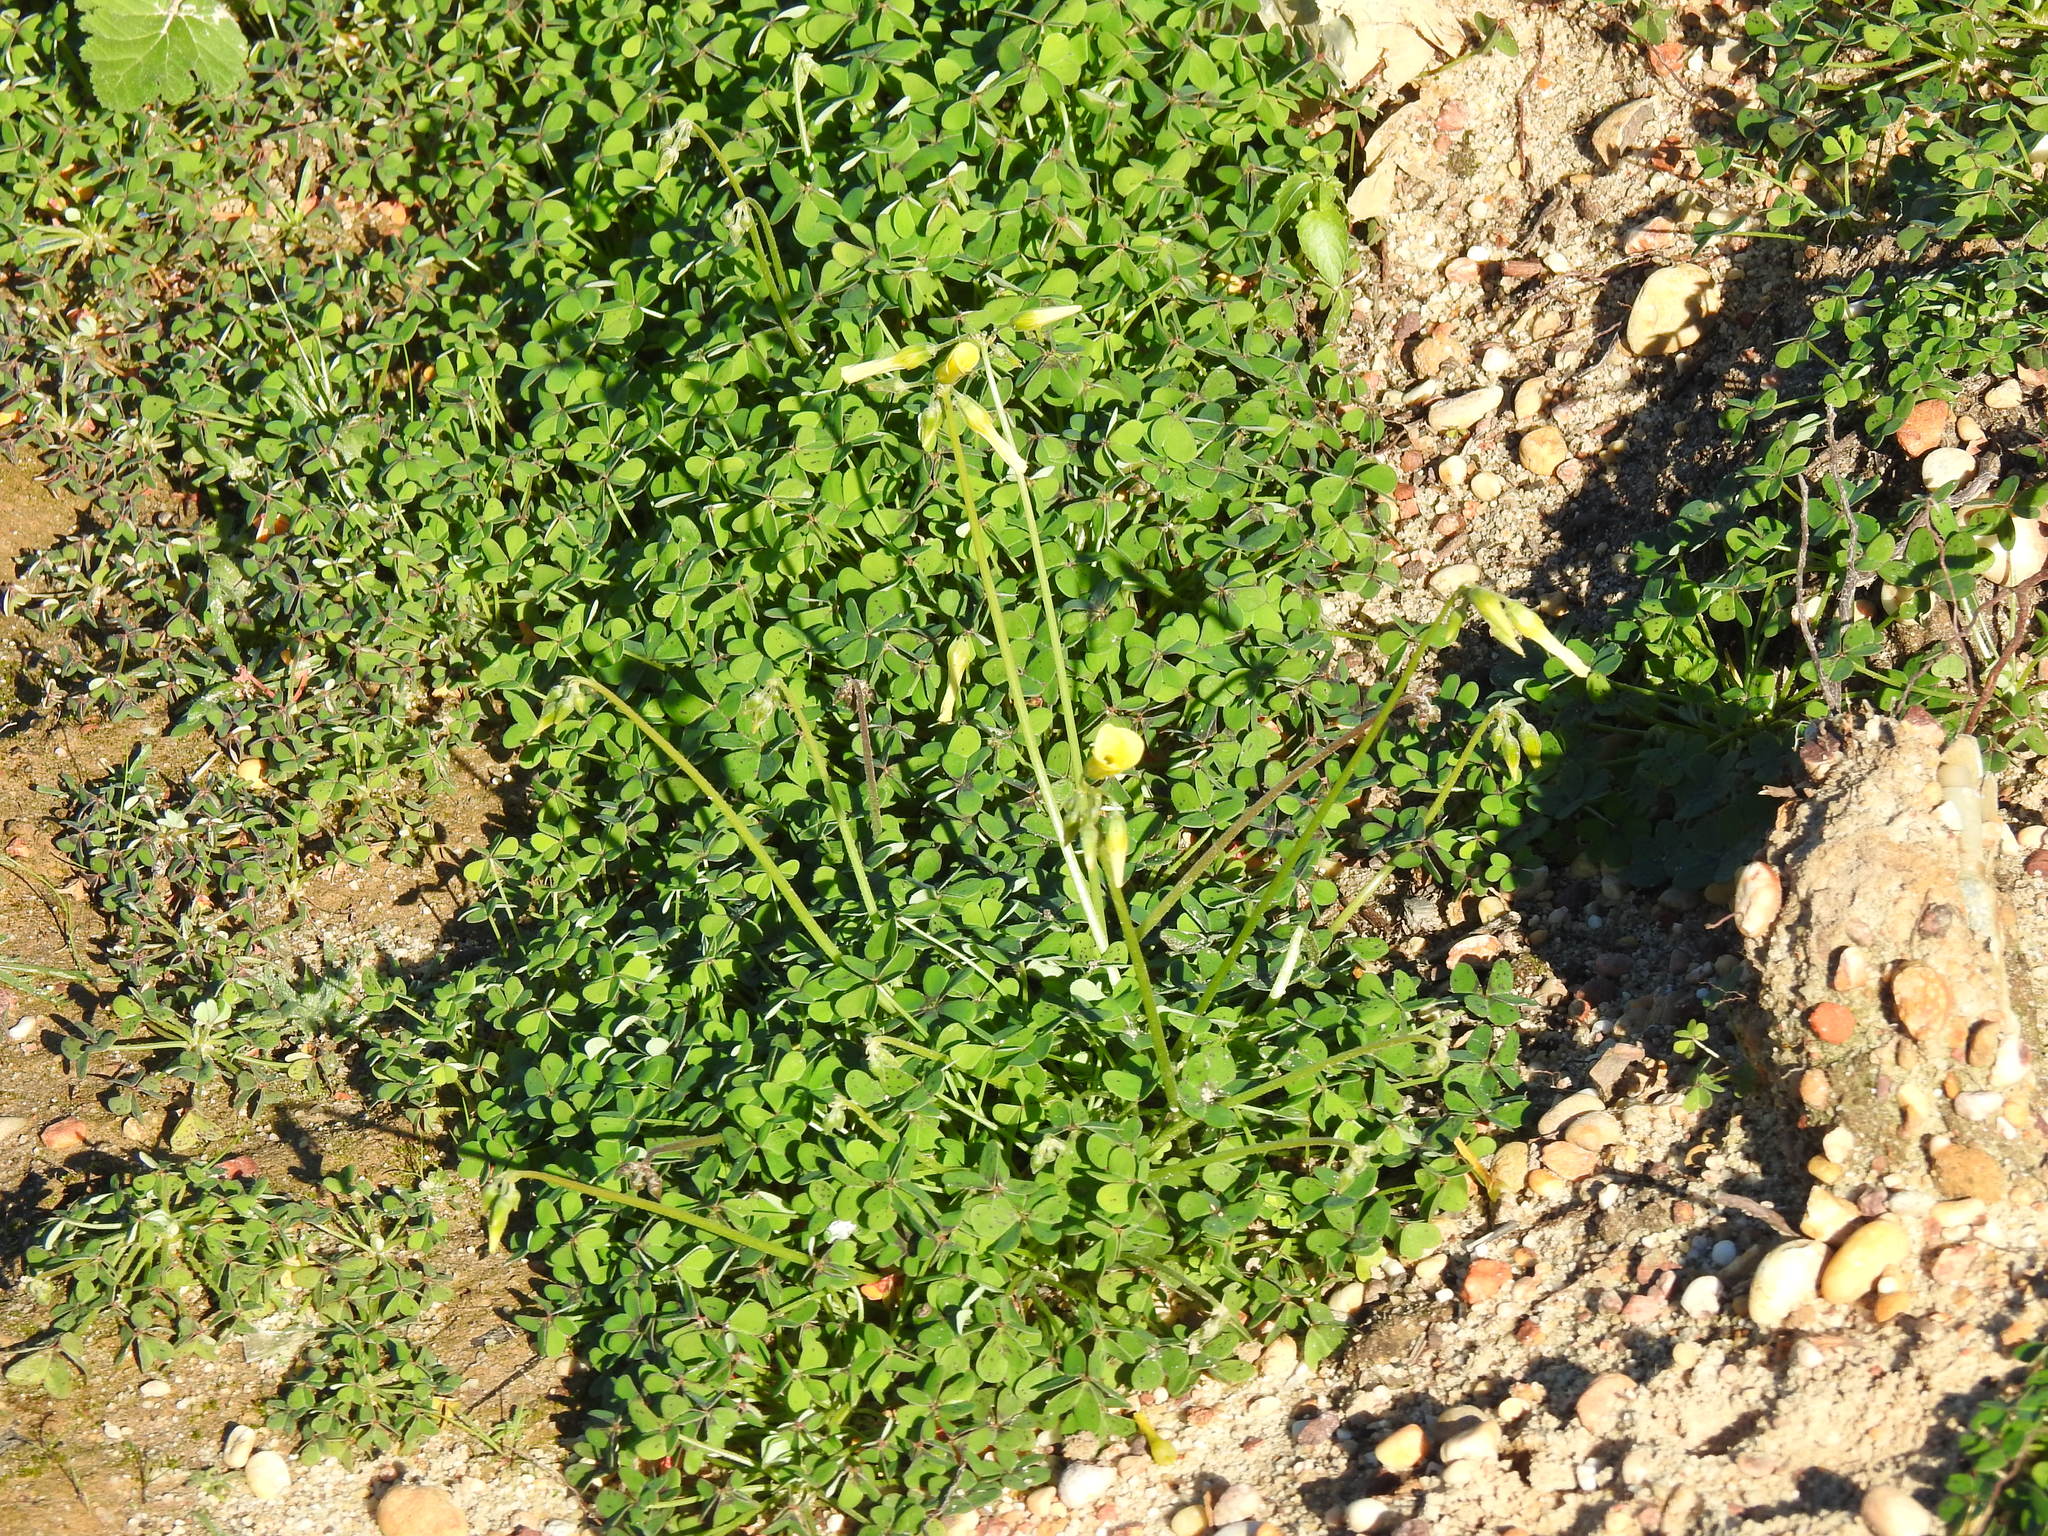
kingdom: Plantae
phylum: Tracheophyta
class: Magnoliopsida
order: Oxalidales
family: Oxalidaceae
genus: Oxalis
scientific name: Oxalis pes-caprae
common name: Bermuda-buttercup
